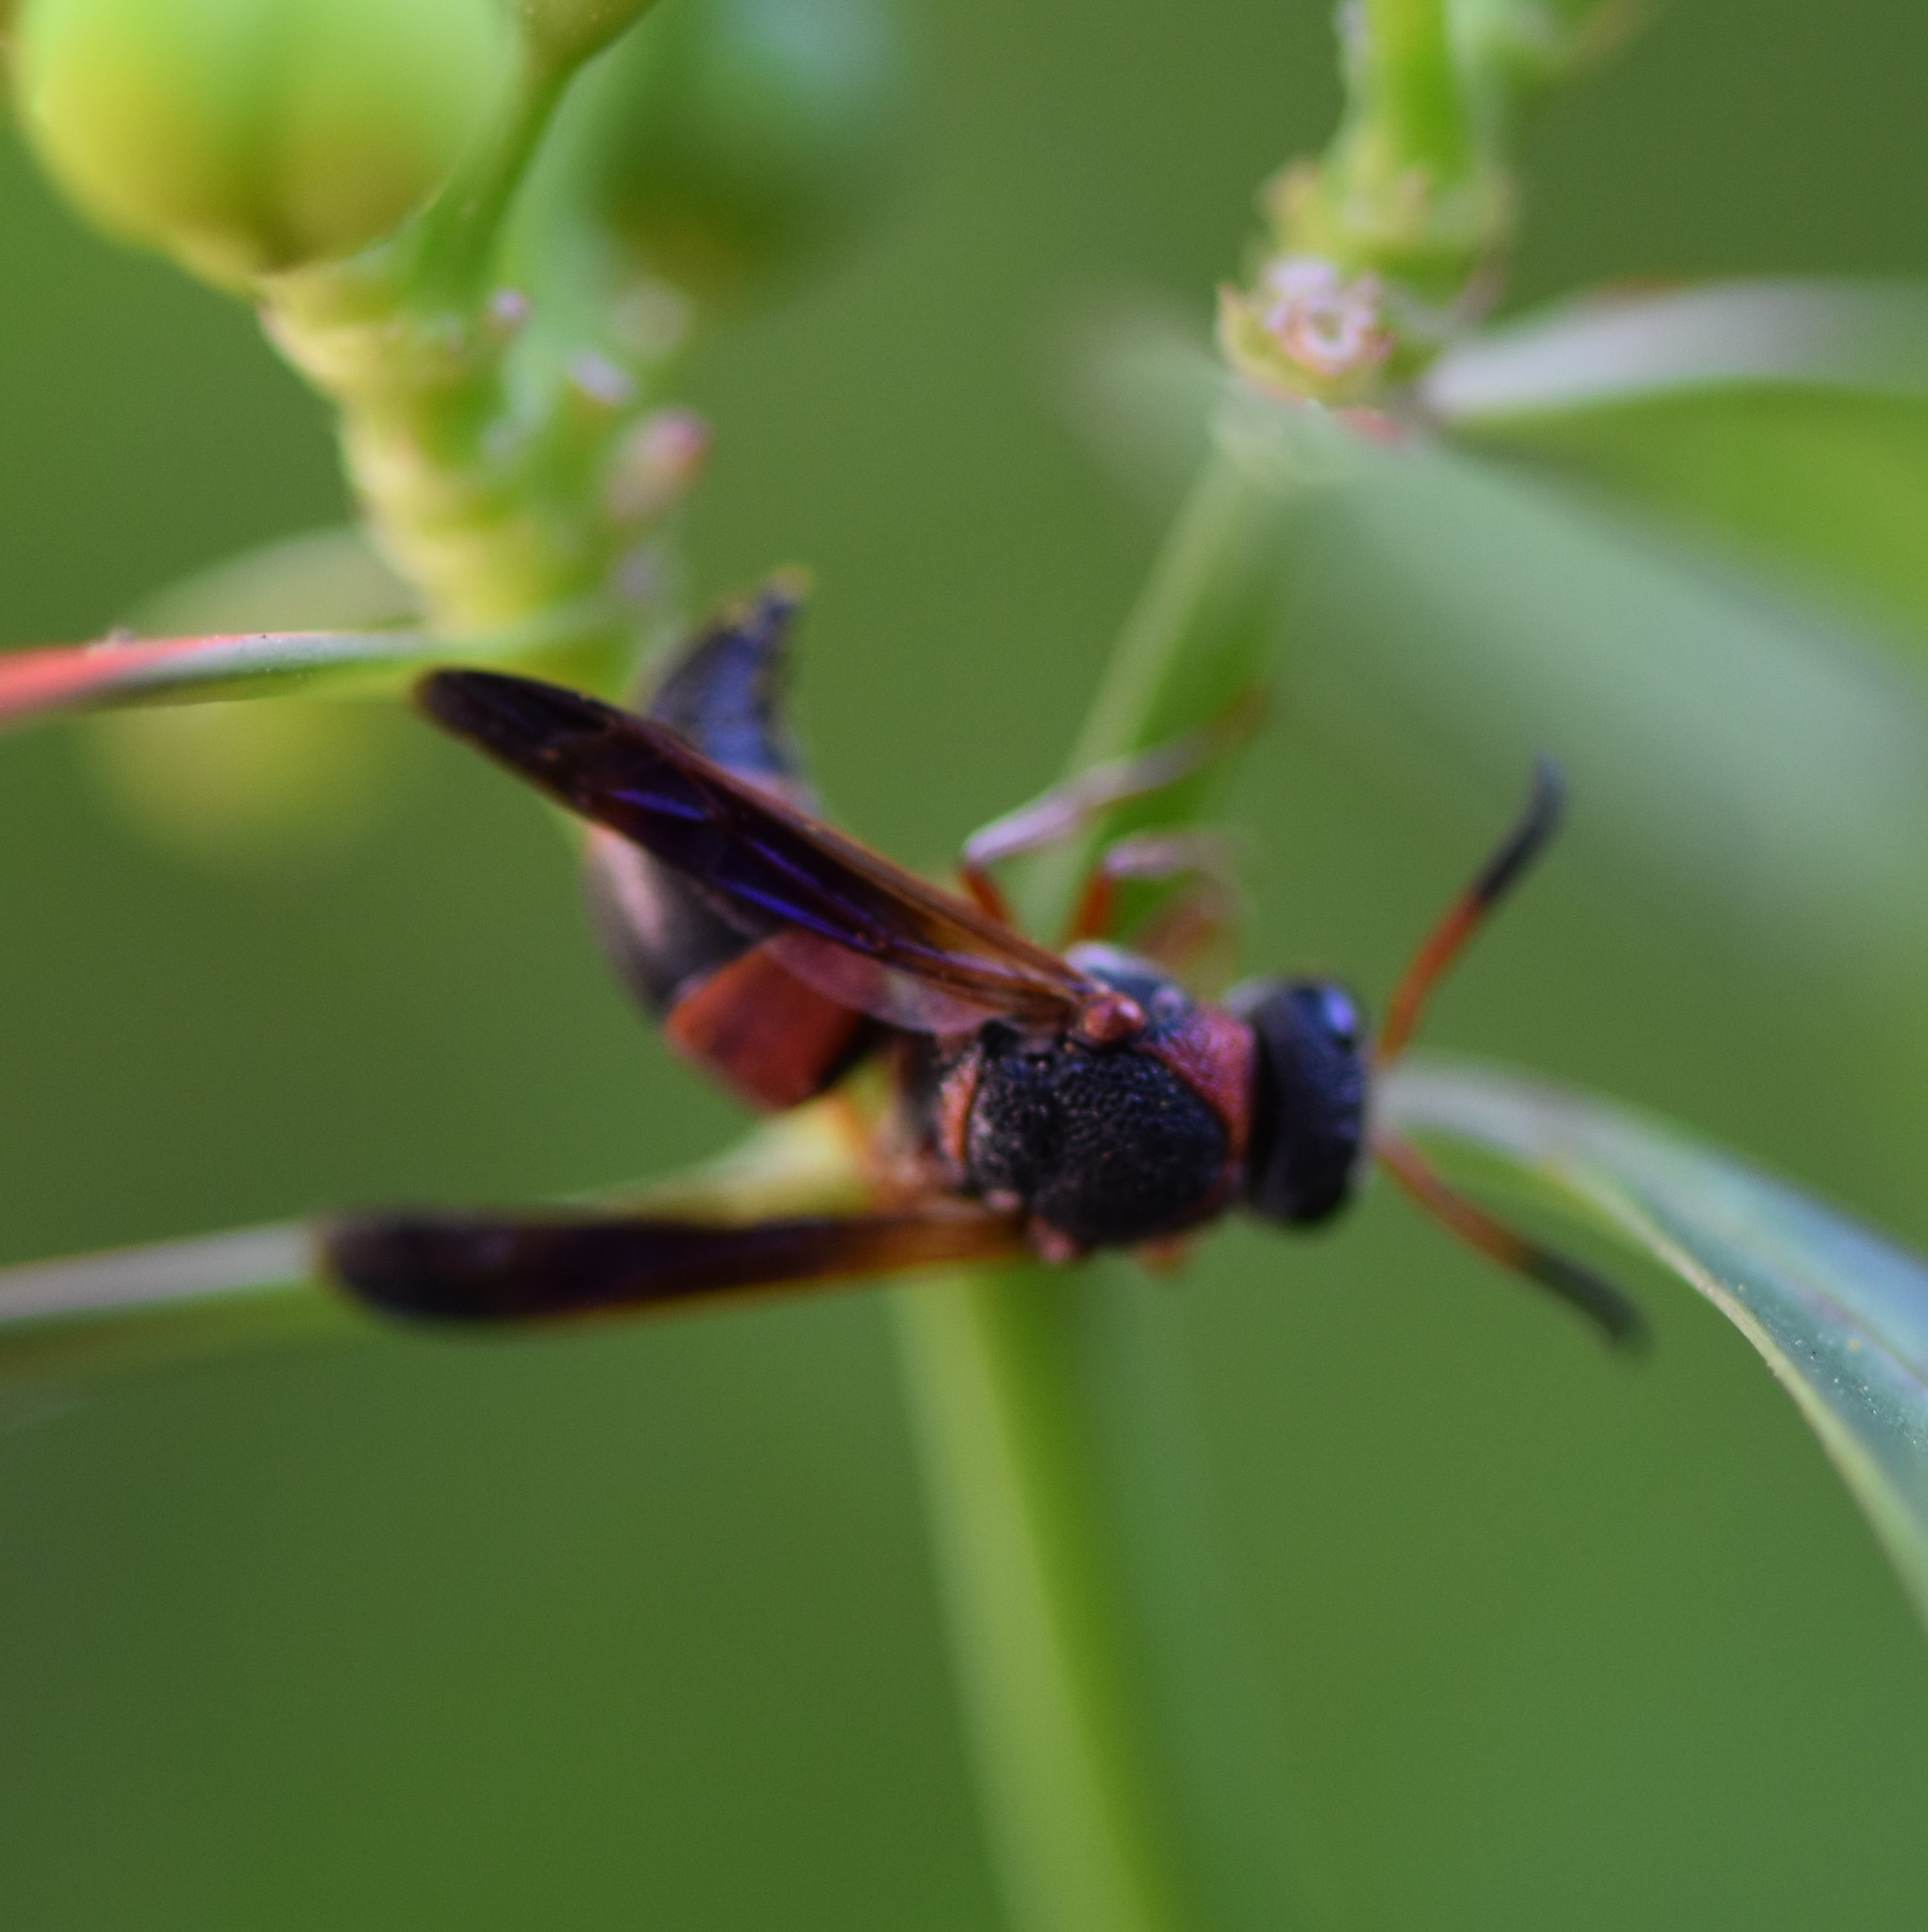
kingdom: Animalia
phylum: Arthropoda
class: Insecta
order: Hymenoptera
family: Eumenidae
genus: Pachodynerus
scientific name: Pachodynerus erynnis
